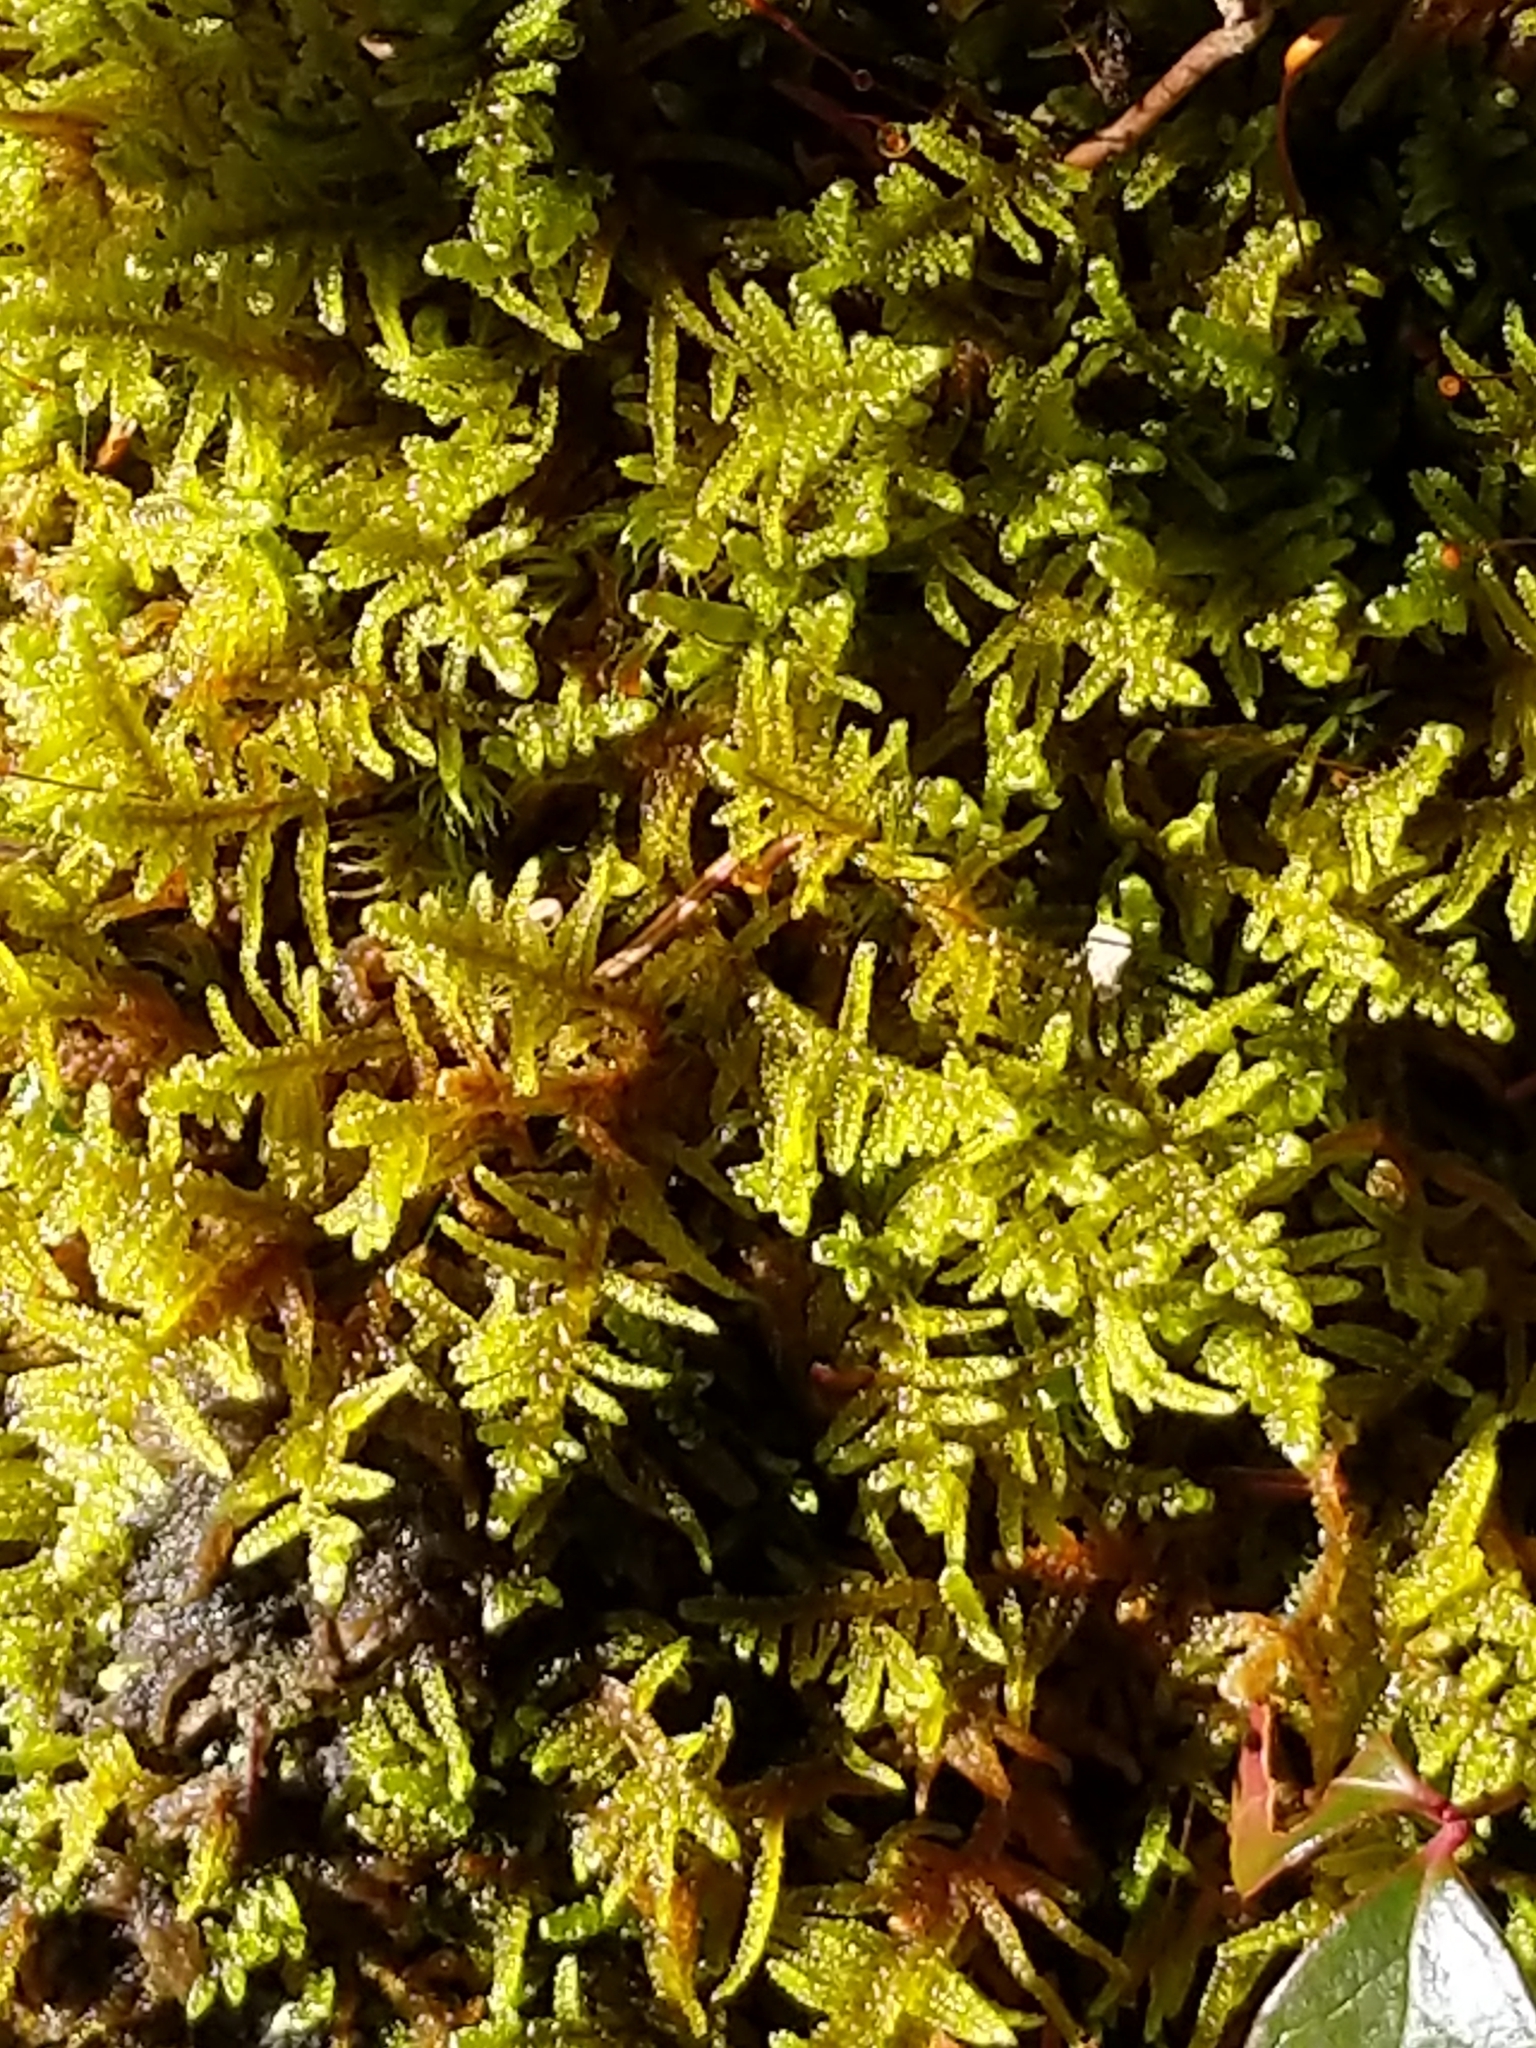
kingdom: Plantae
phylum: Bryophyta
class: Bryopsida
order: Hypnales
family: Callicladiaceae
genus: Callicladium
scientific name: Callicladium imponens
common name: Brocade moss
